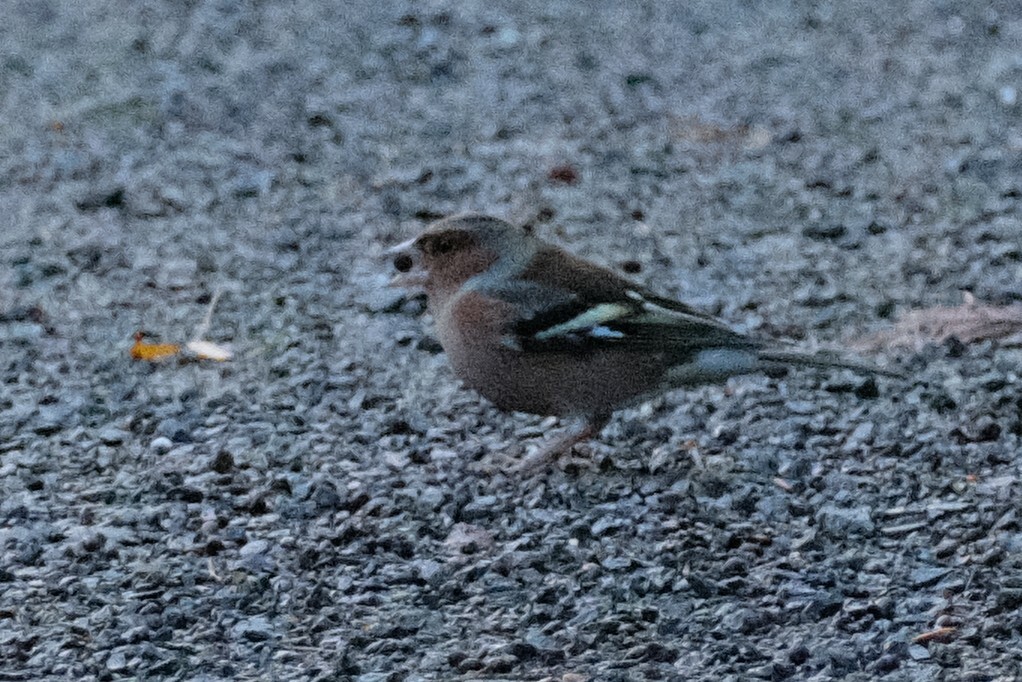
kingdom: Animalia
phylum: Chordata
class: Aves
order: Passeriformes
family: Fringillidae
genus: Fringilla
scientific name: Fringilla coelebs
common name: Common chaffinch
